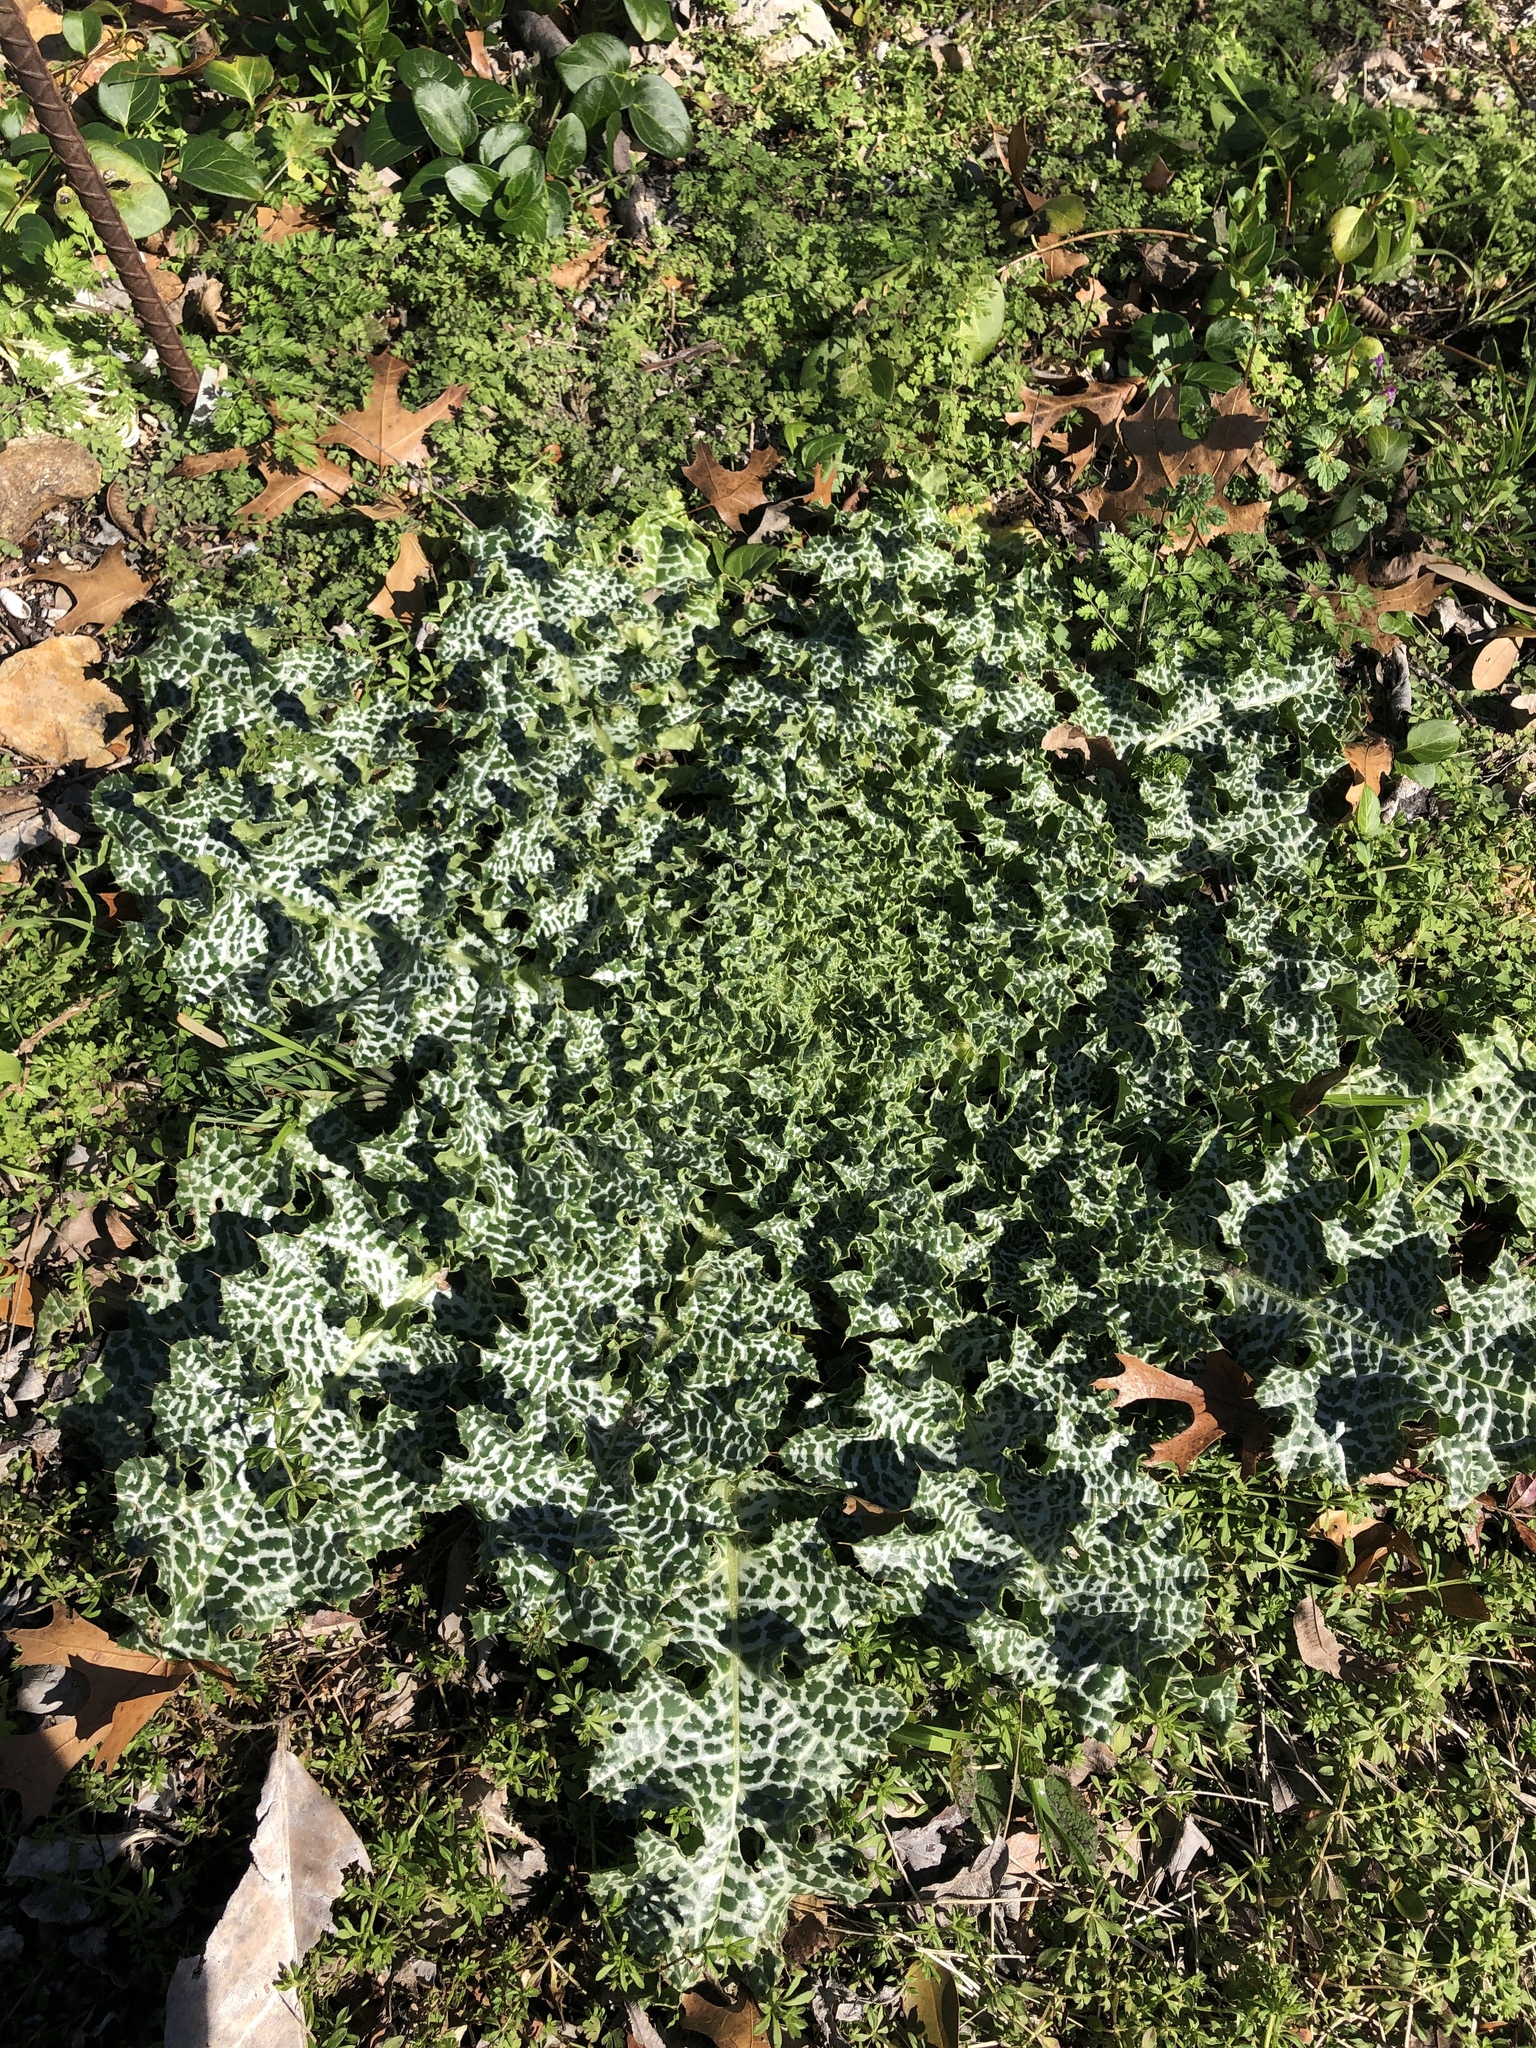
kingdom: Plantae
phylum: Tracheophyta
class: Magnoliopsida
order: Asterales
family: Asteraceae
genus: Silybum
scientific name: Silybum marianum
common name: Milk thistle
